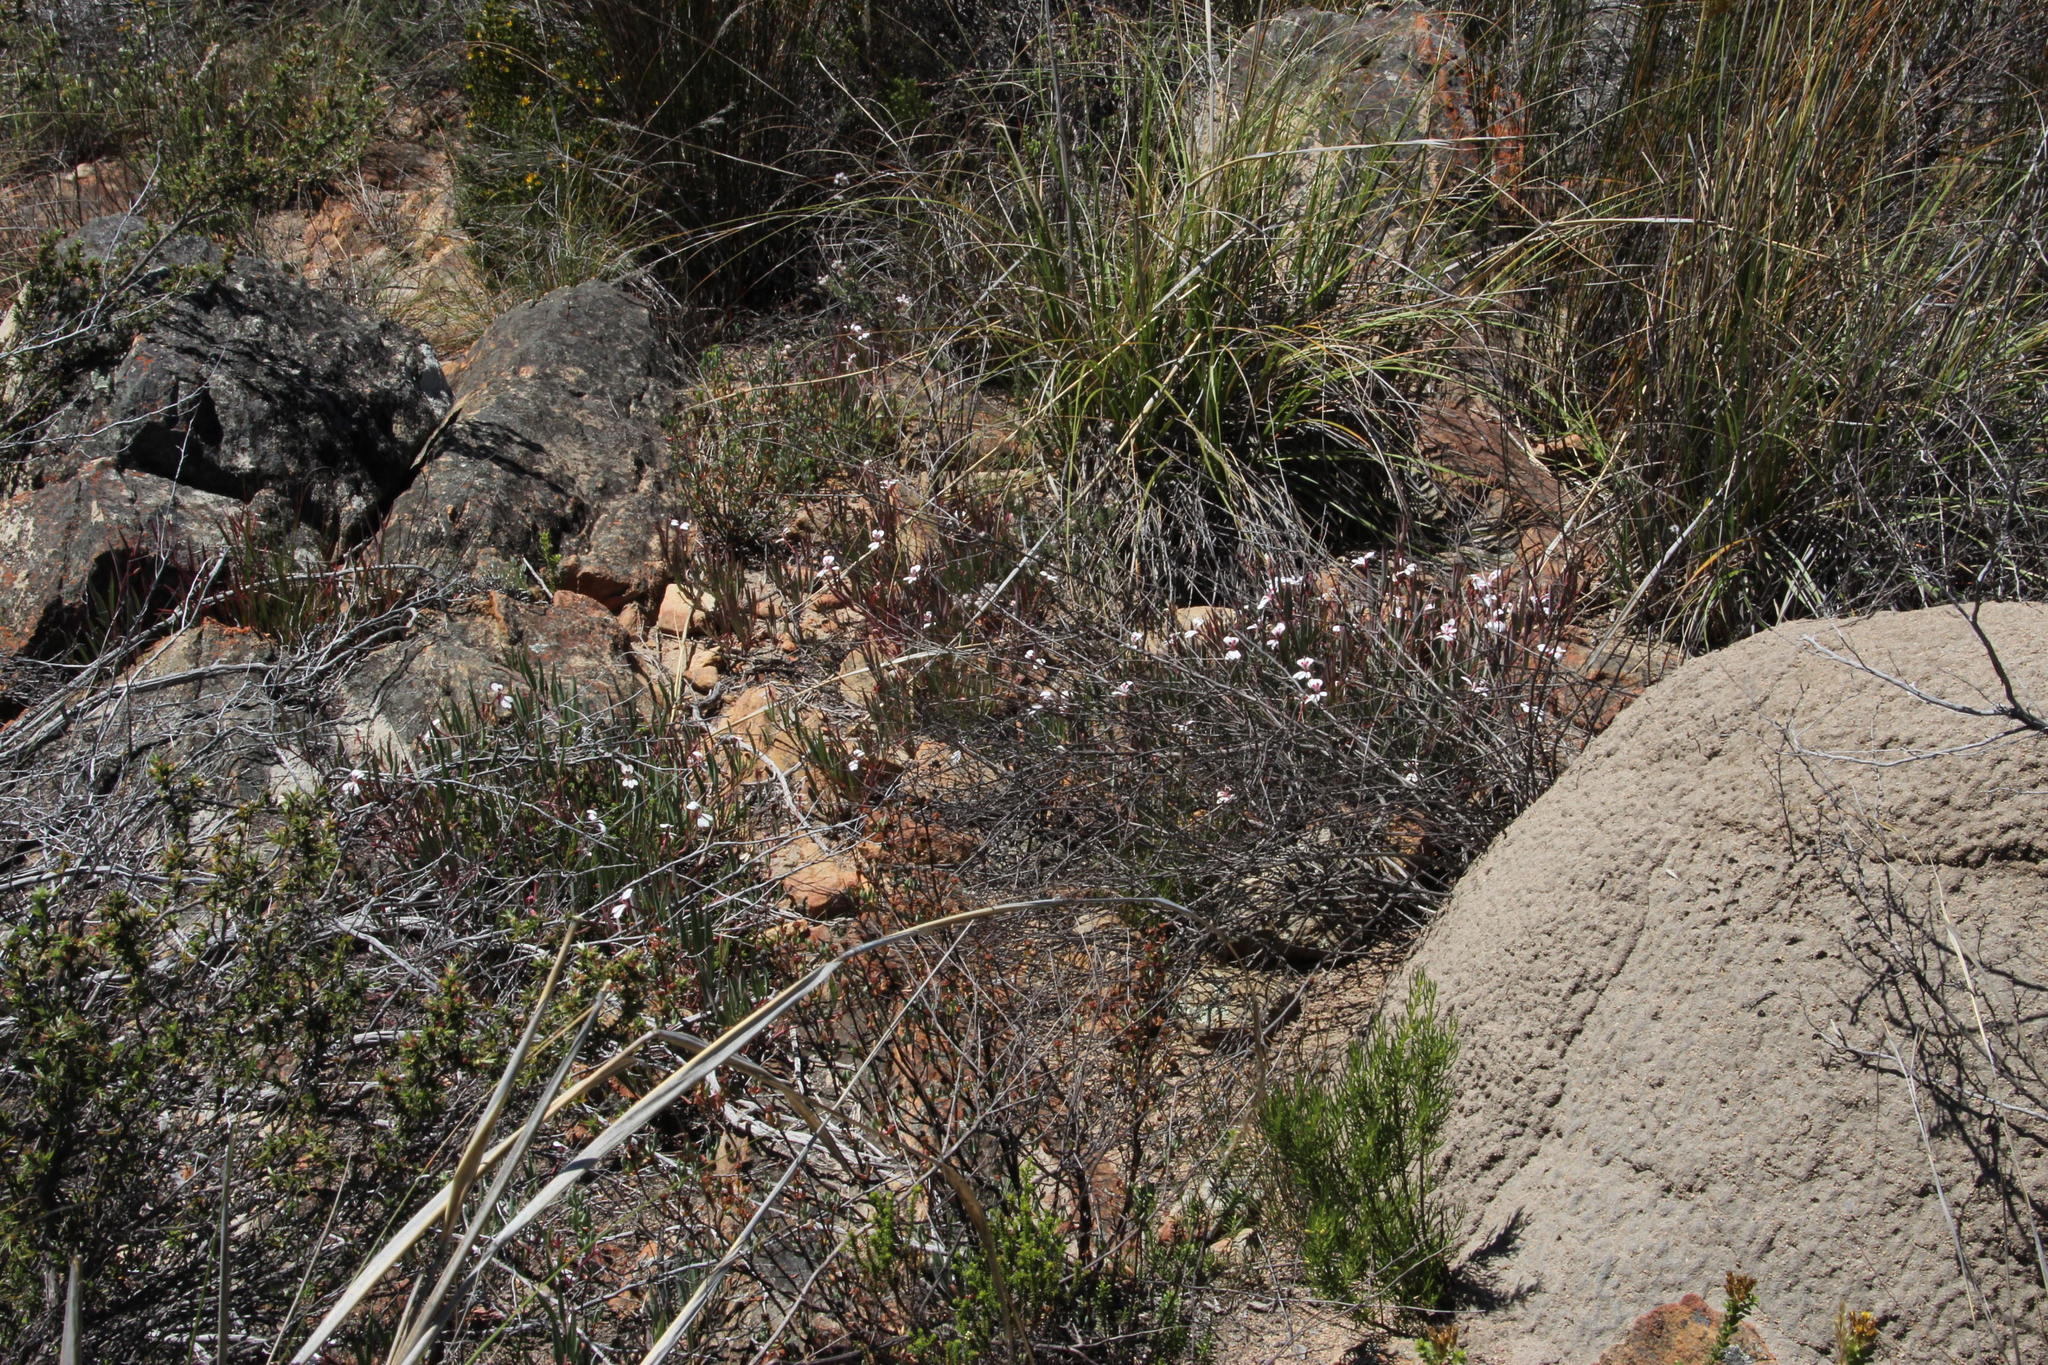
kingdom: Plantae
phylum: Tracheophyta
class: Magnoliopsida
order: Geraniales
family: Geraniaceae
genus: Pelargonium
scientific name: Pelargonium lanceolatum
